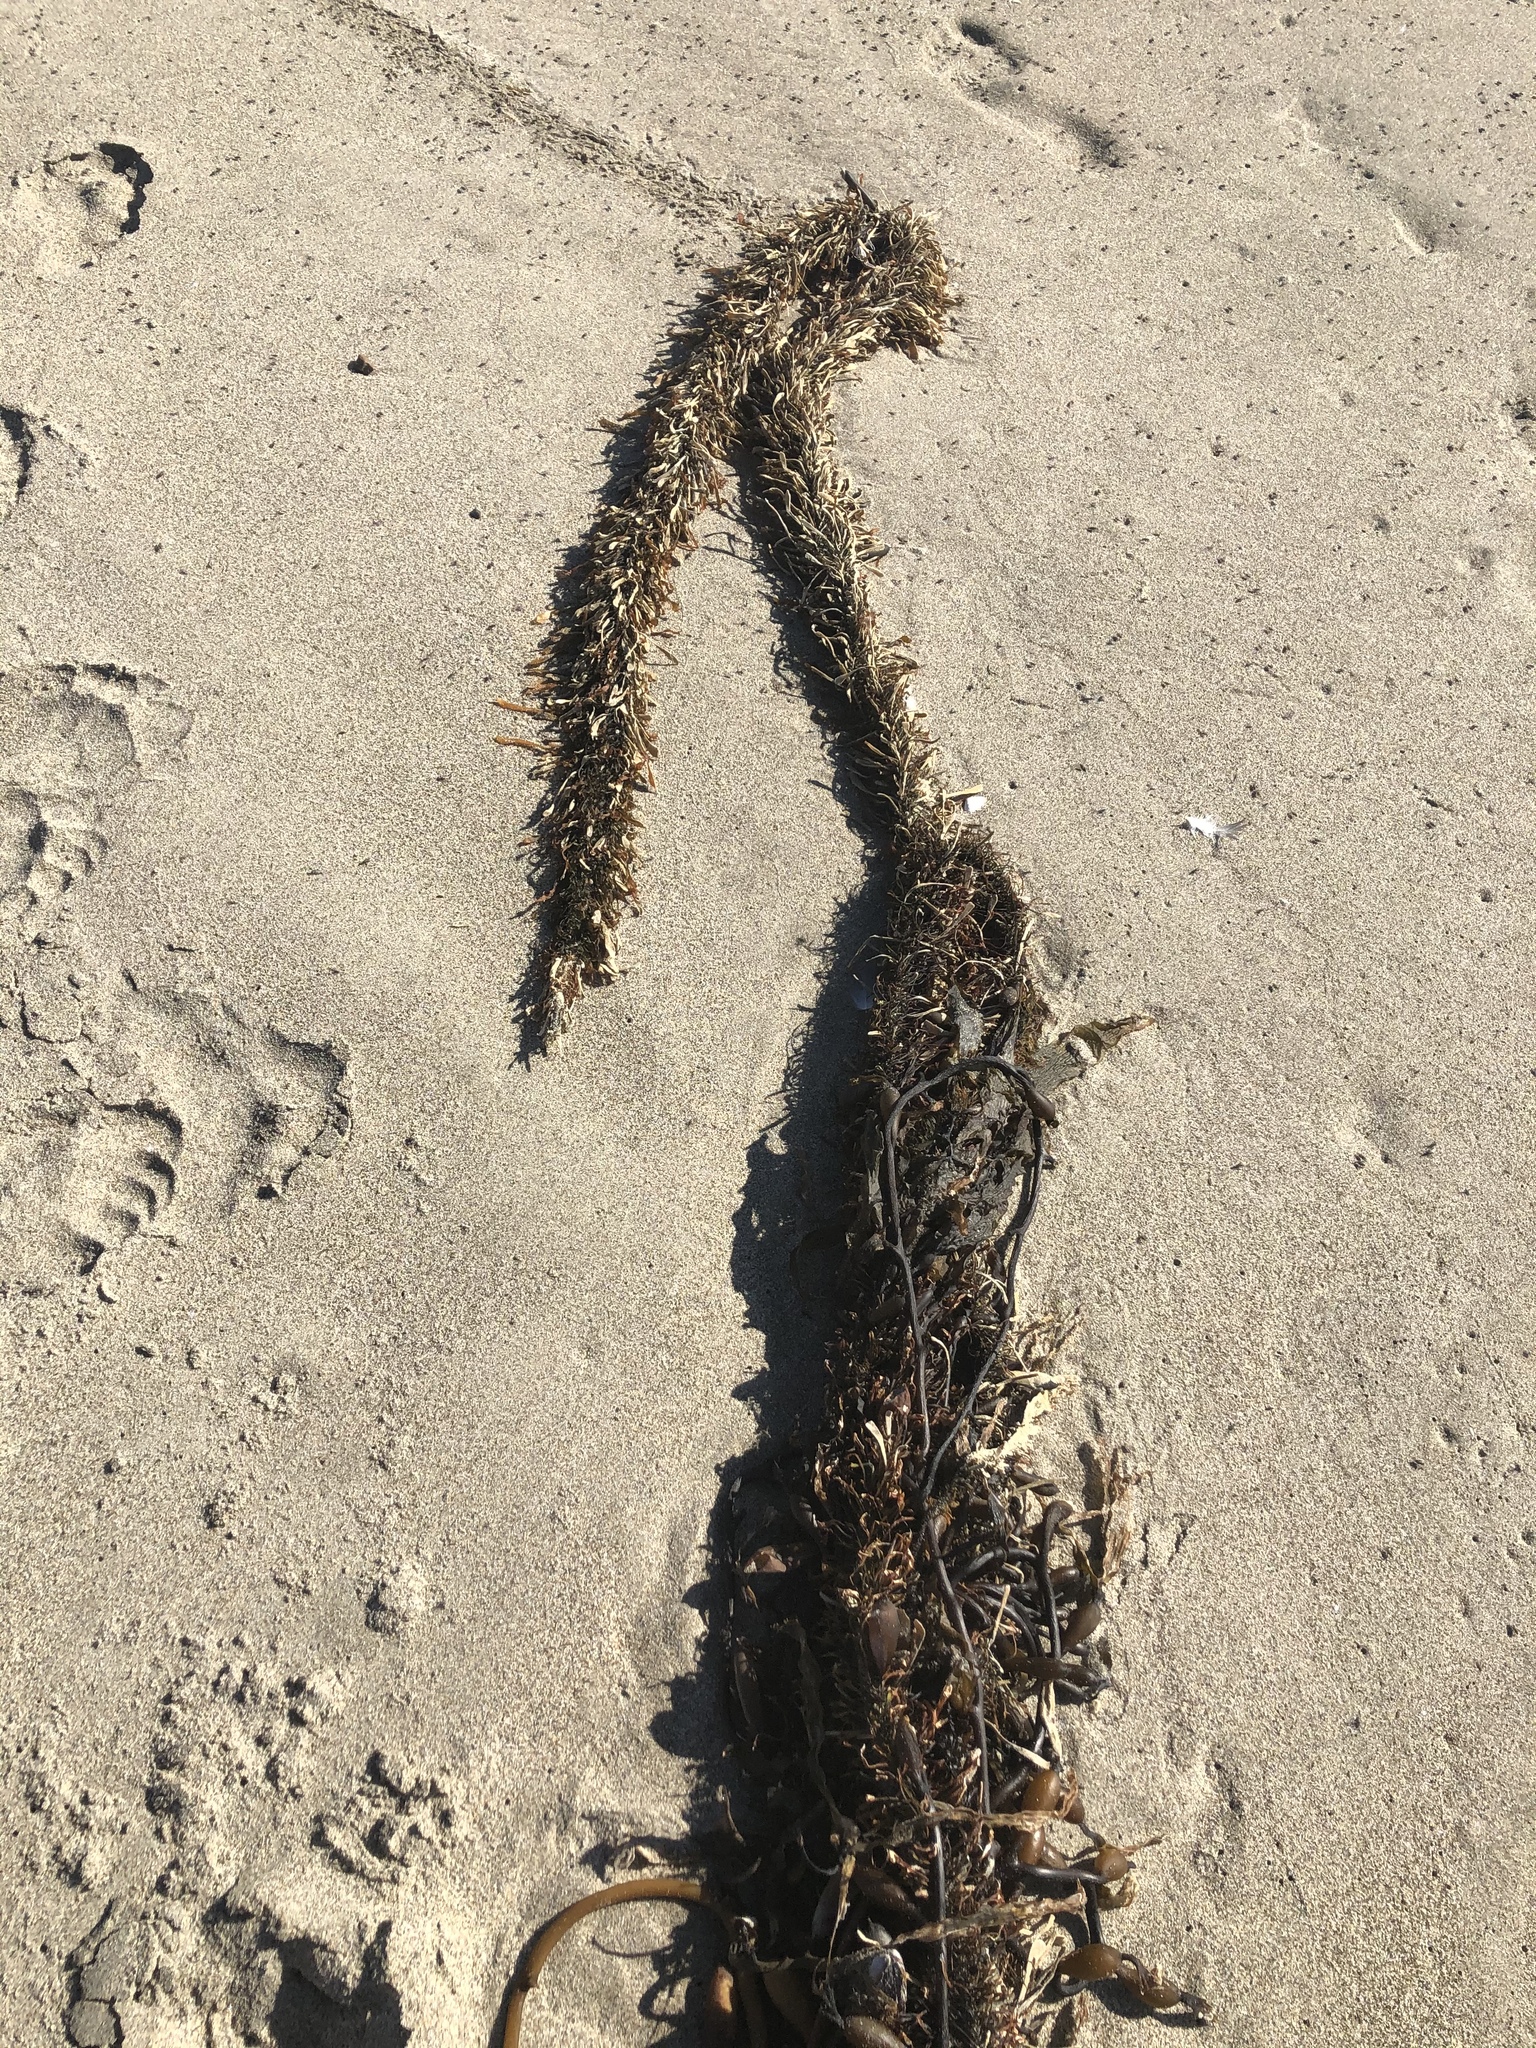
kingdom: Chromista
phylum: Ochrophyta
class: Phaeophyceae
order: Laminariales
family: Lessoniaceae
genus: Egregia
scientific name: Egregia menziesii
